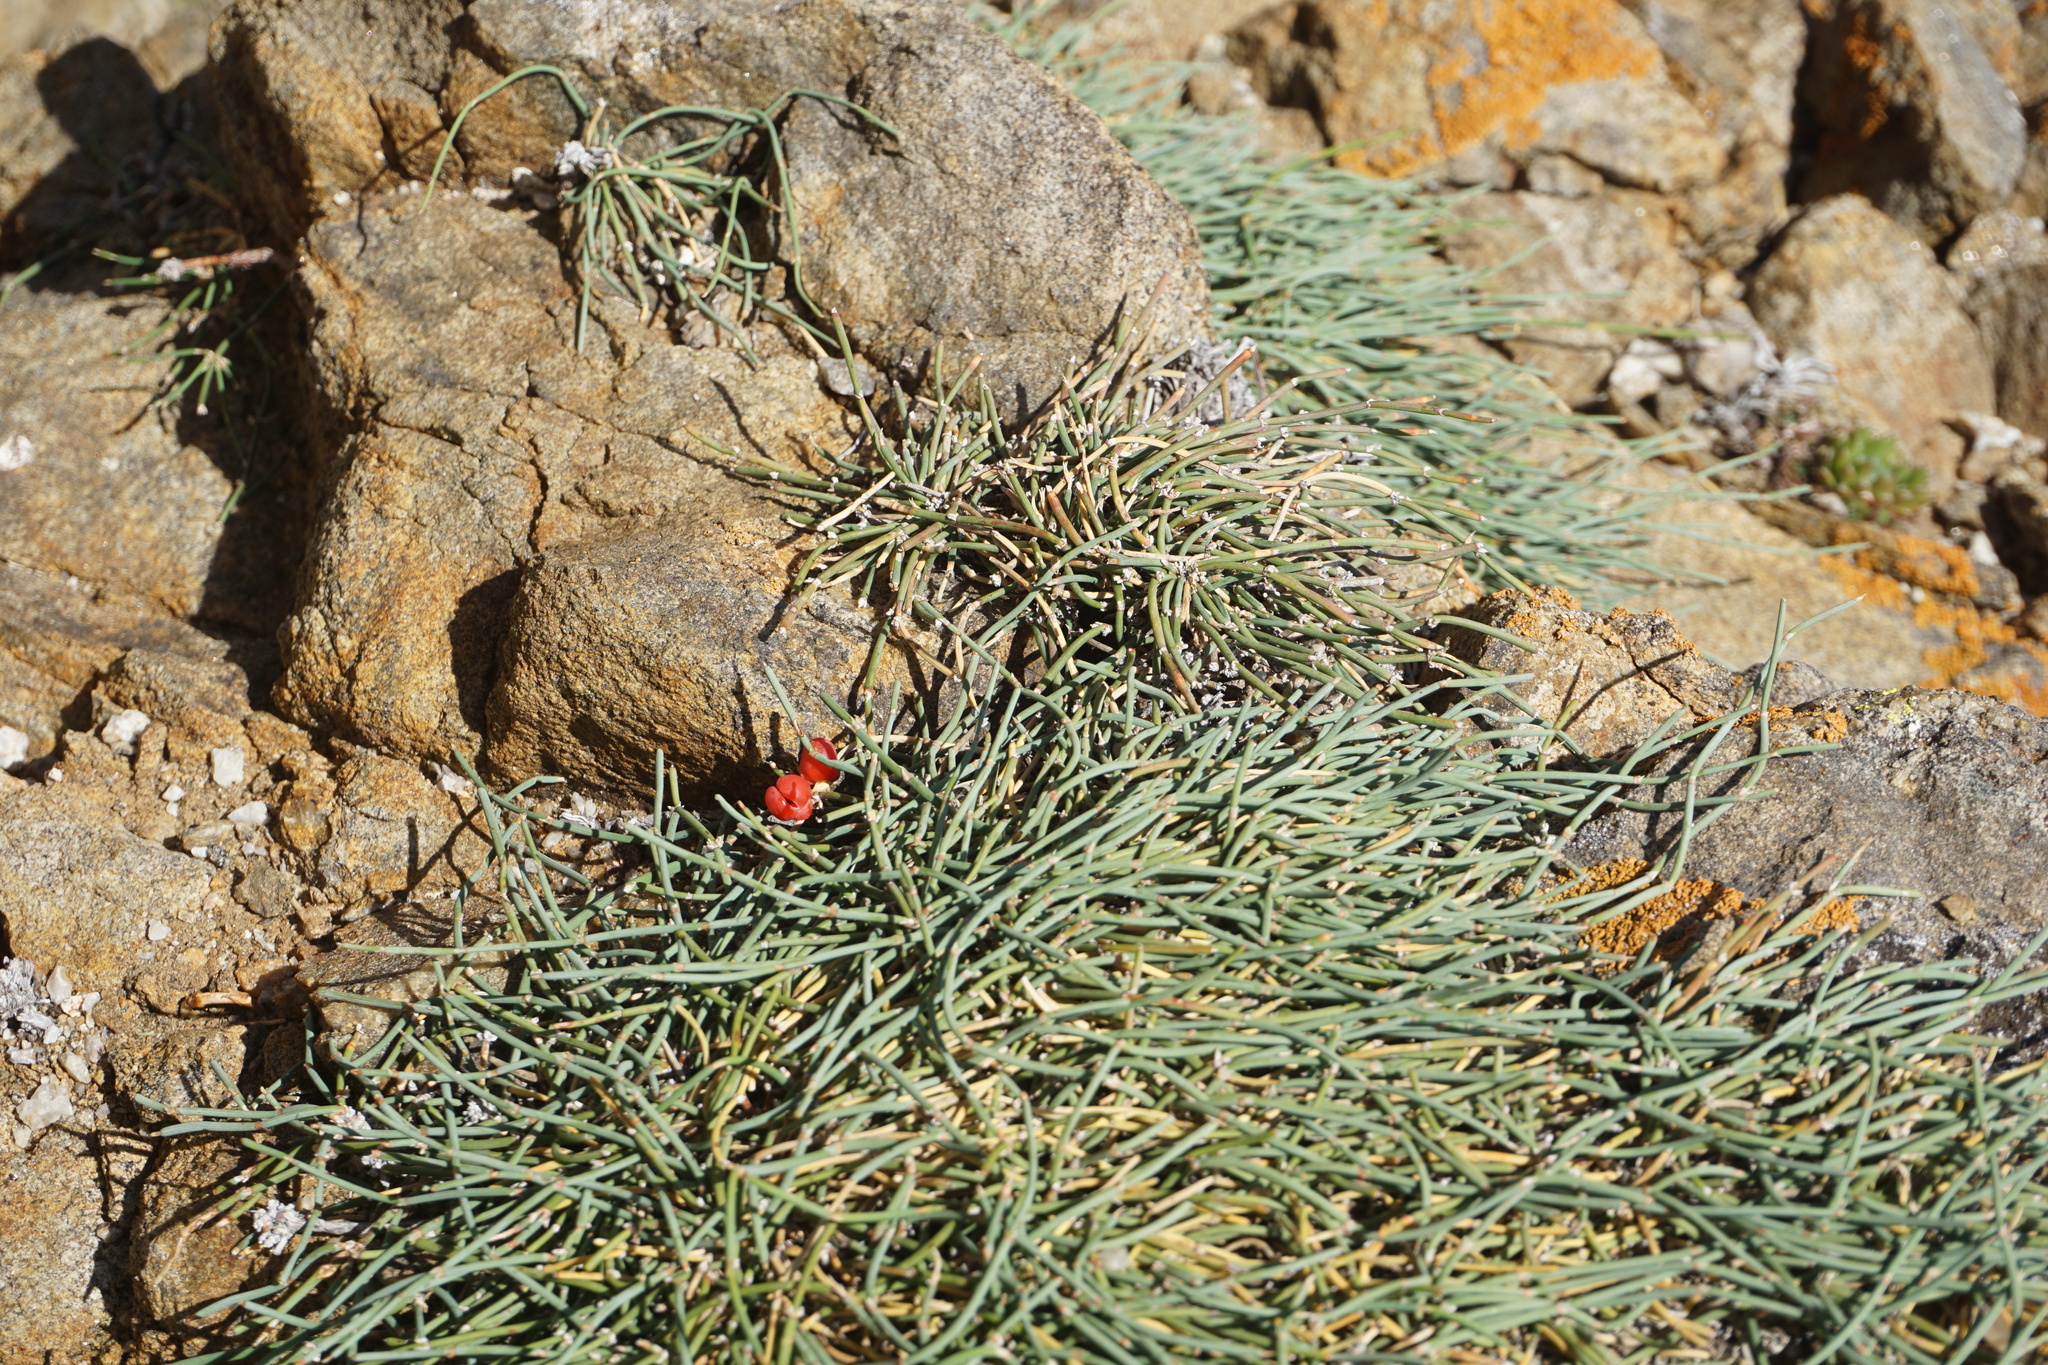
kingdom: Plantae
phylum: Tracheophyta
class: Gnetopsida
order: Ephedrales
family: Ephedraceae
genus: Ephedra
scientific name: Ephedra monosperma
